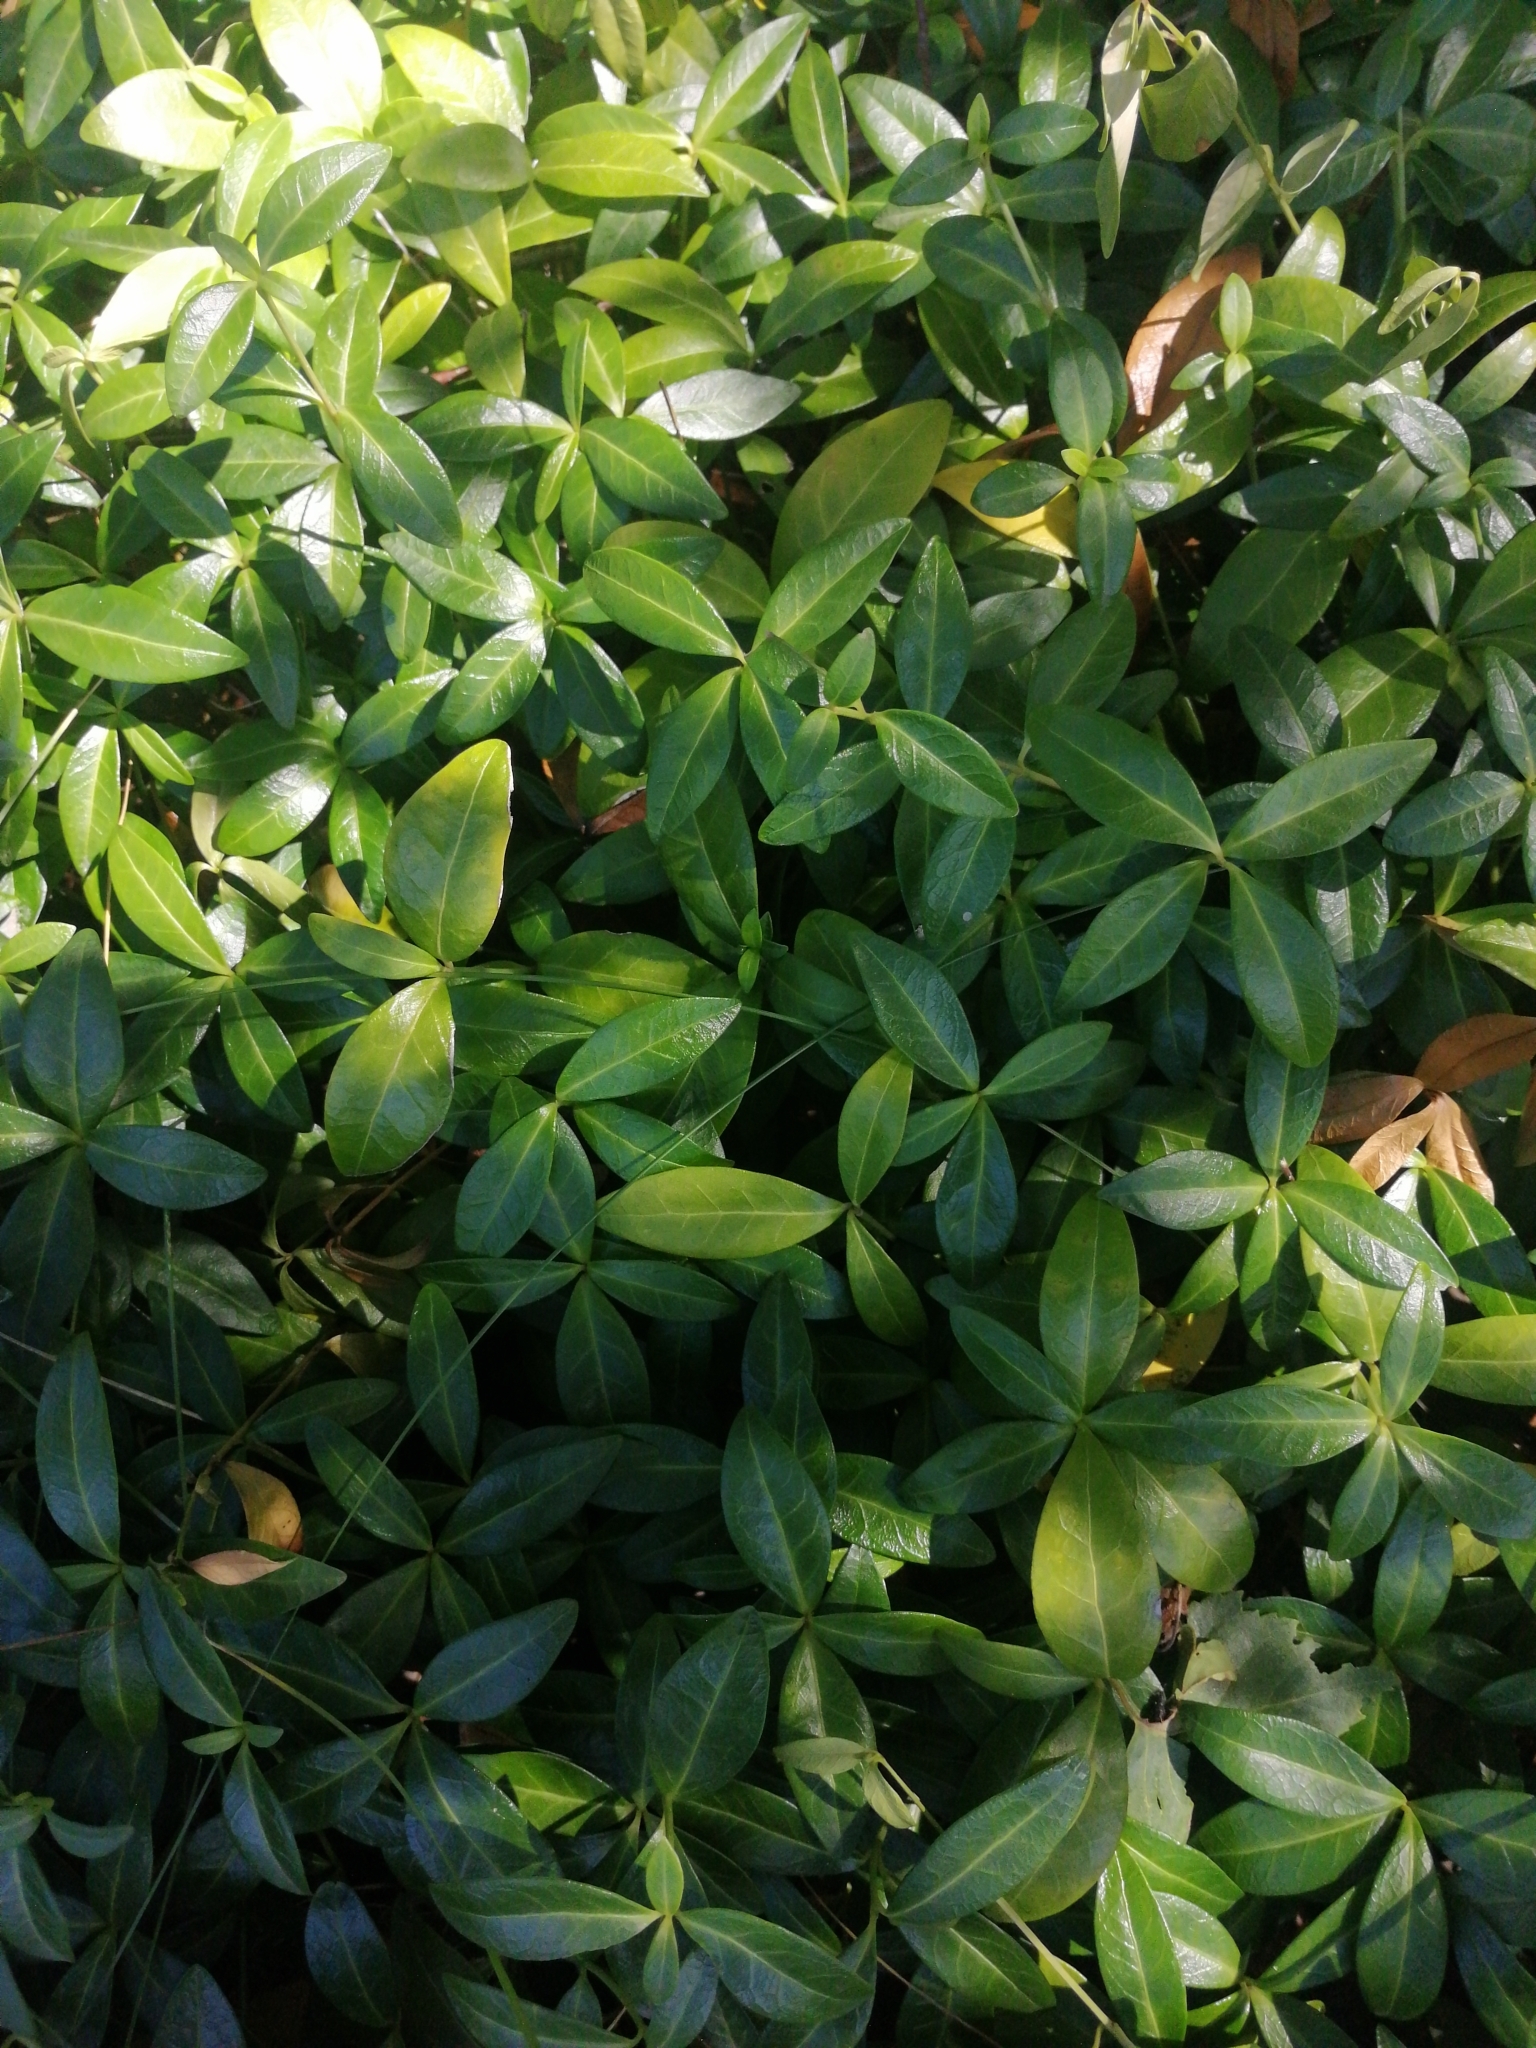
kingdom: Plantae
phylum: Tracheophyta
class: Magnoliopsida
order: Gentianales
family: Apocynaceae
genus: Vinca
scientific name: Vinca minor
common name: Lesser periwinkle
